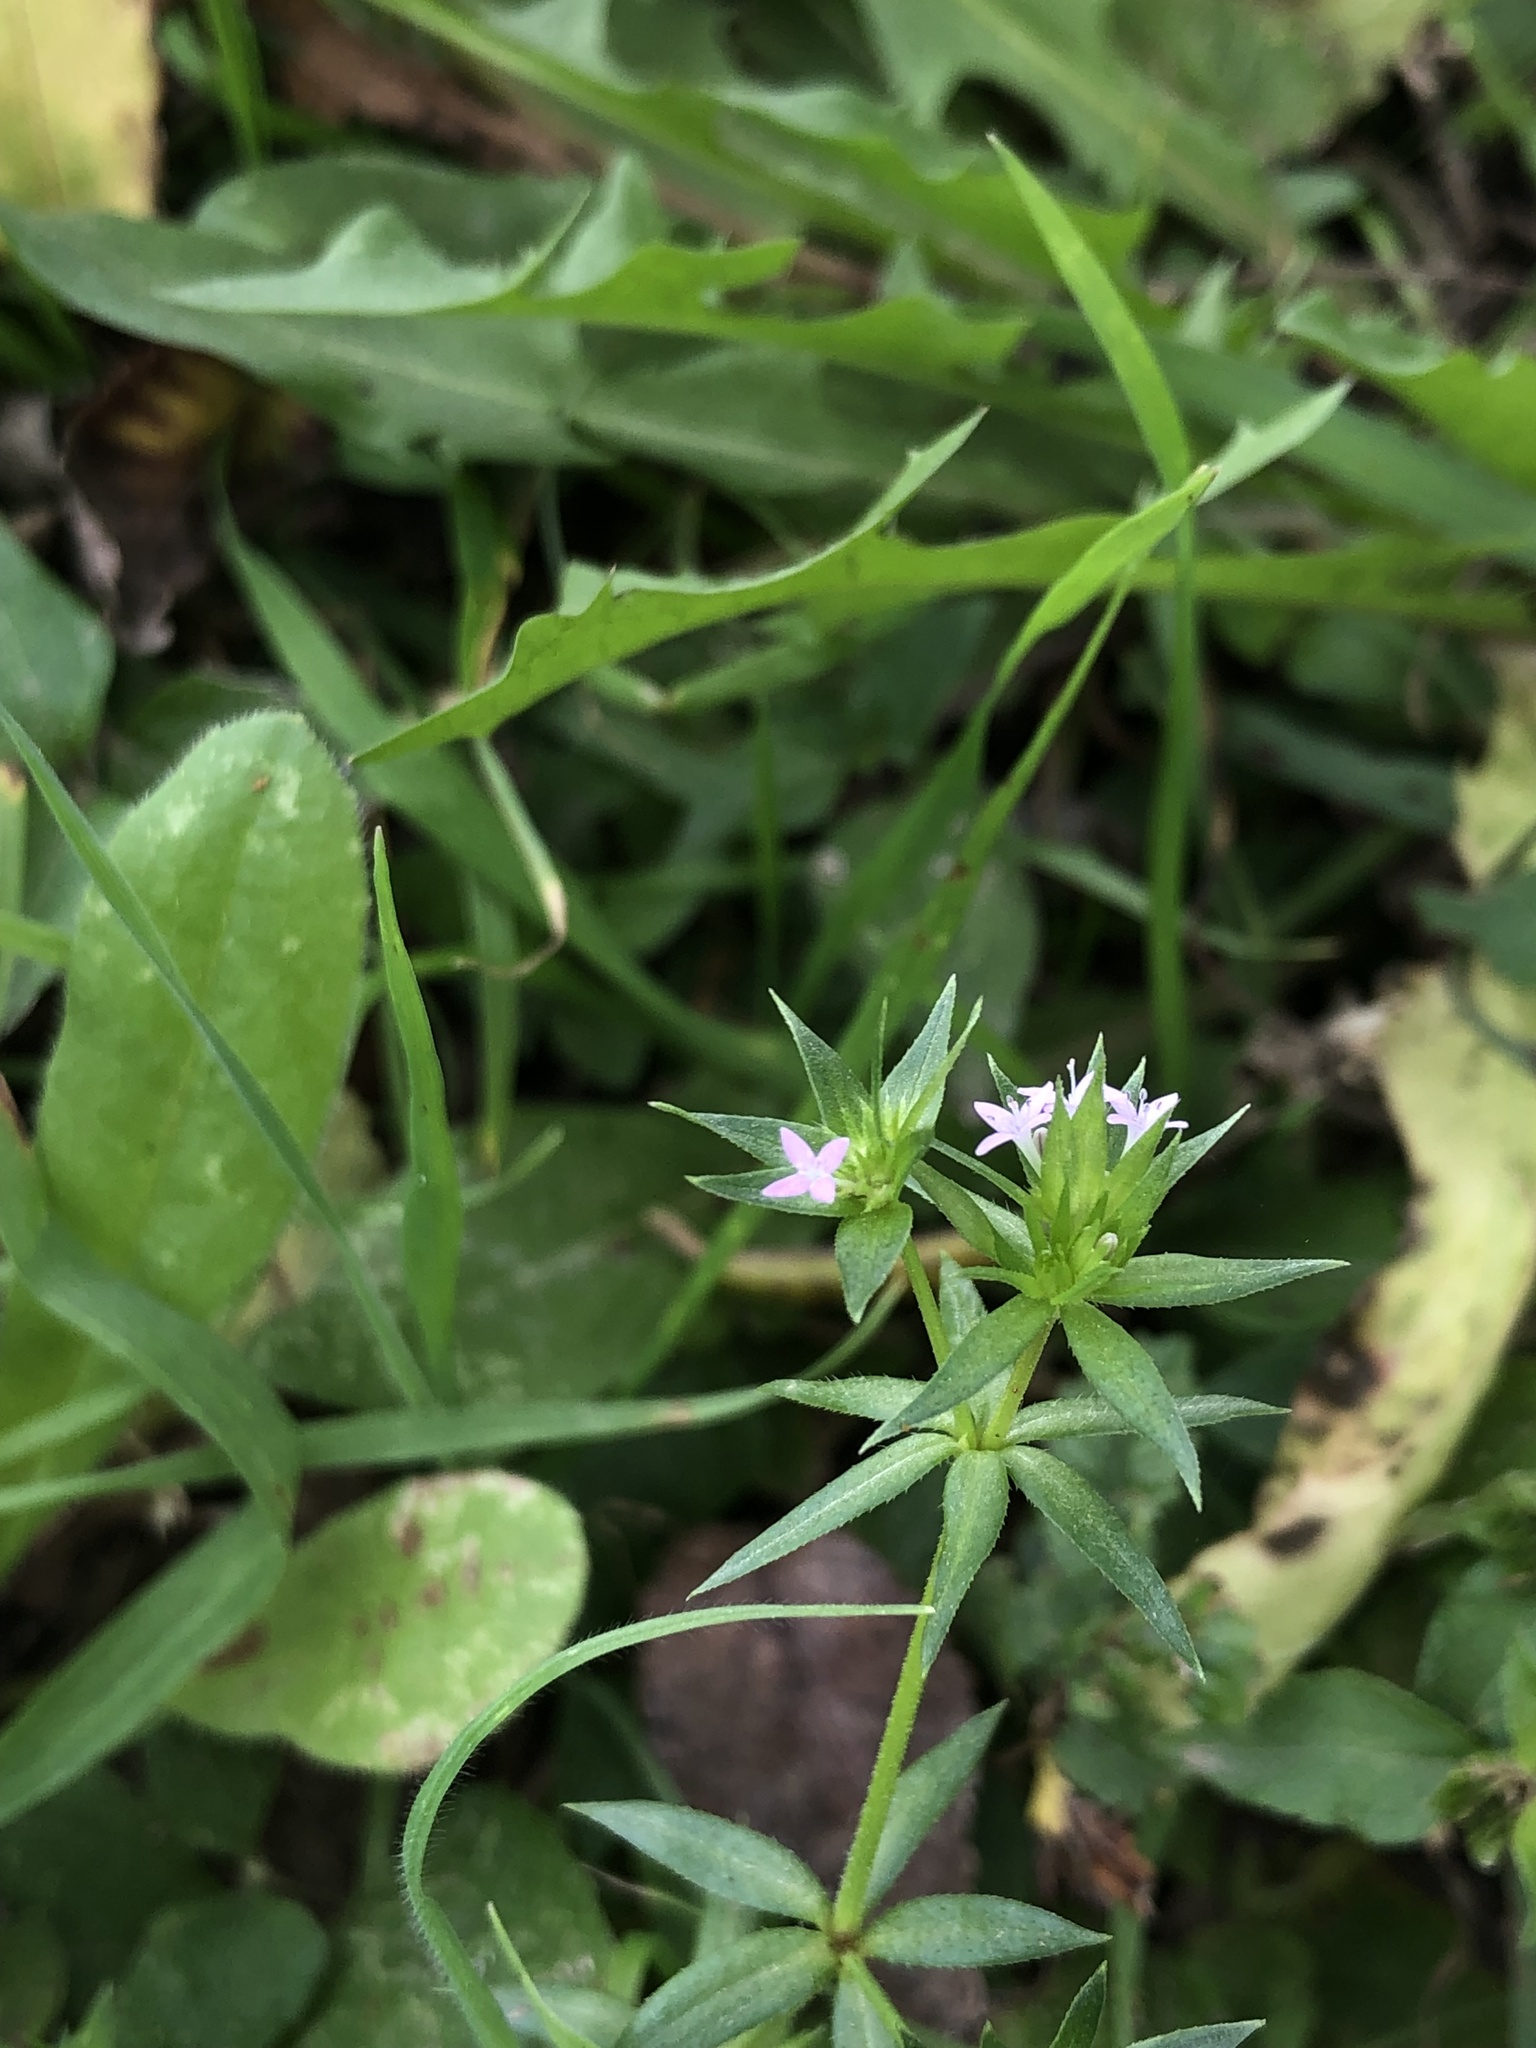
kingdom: Plantae
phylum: Tracheophyta
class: Magnoliopsida
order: Gentianales
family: Rubiaceae
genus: Sherardia
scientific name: Sherardia arvensis
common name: Field madder
